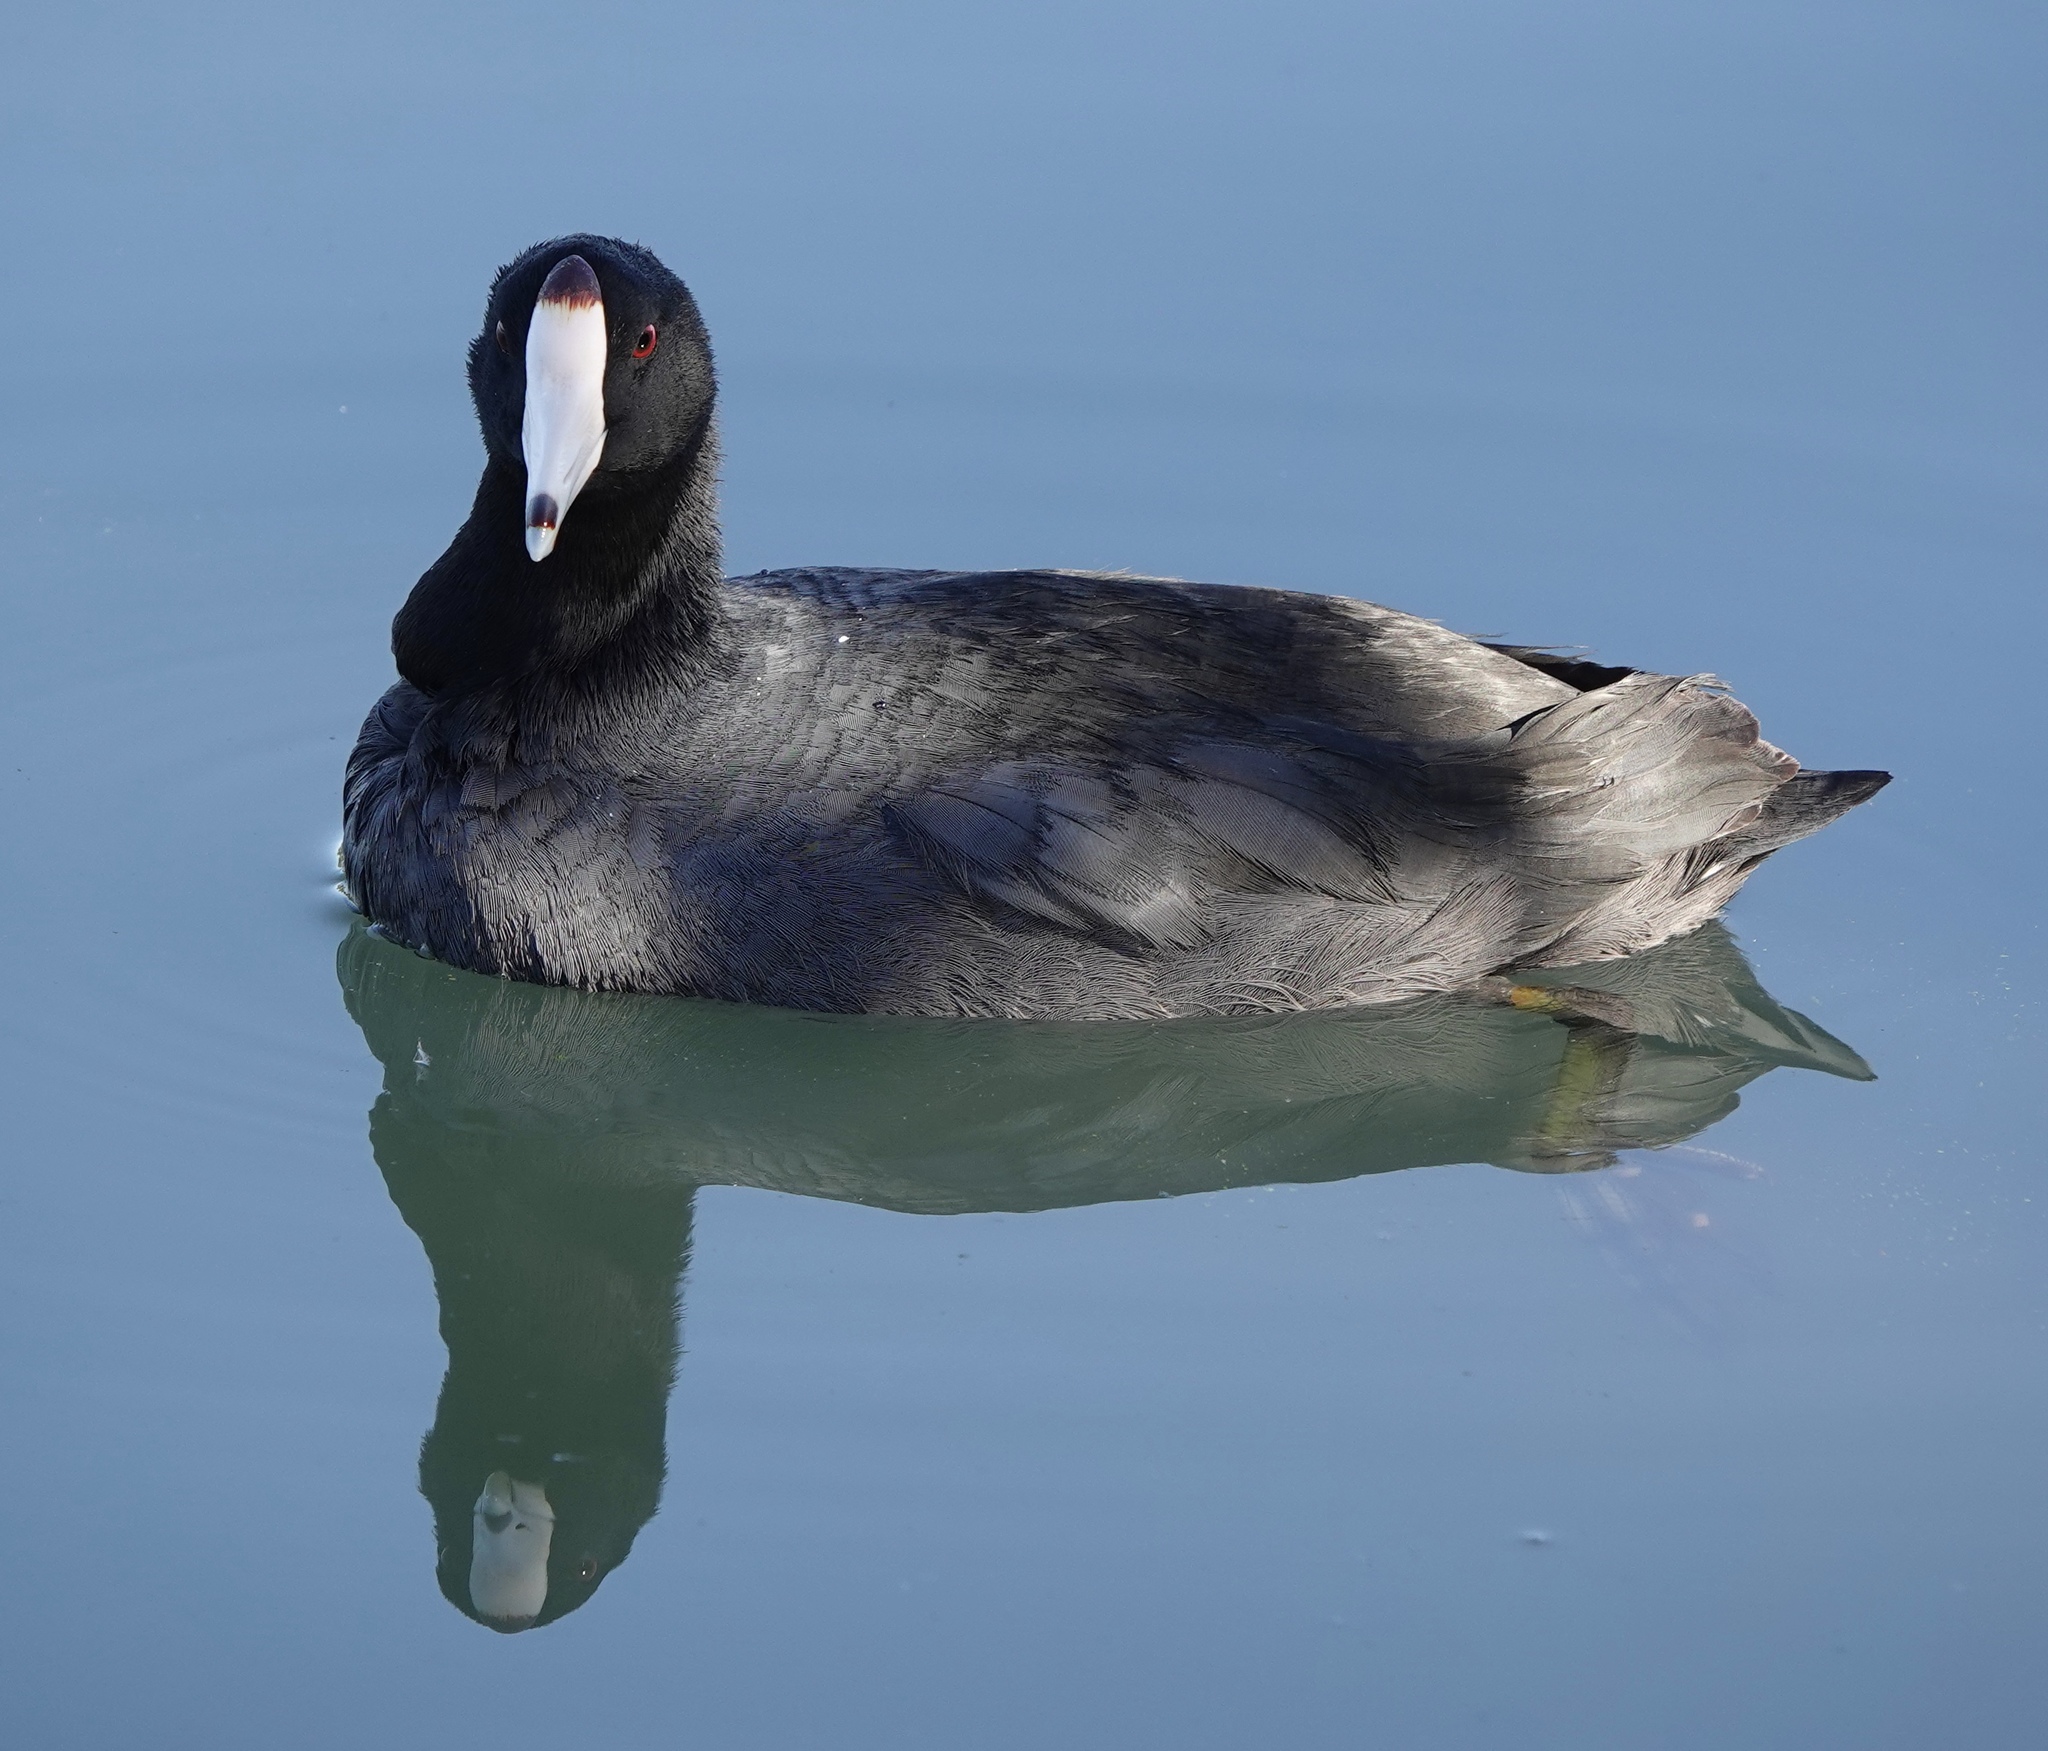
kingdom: Animalia
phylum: Chordata
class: Aves
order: Gruiformes
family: Rallidae
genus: Fulica
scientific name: Fulica americana
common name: American coot
